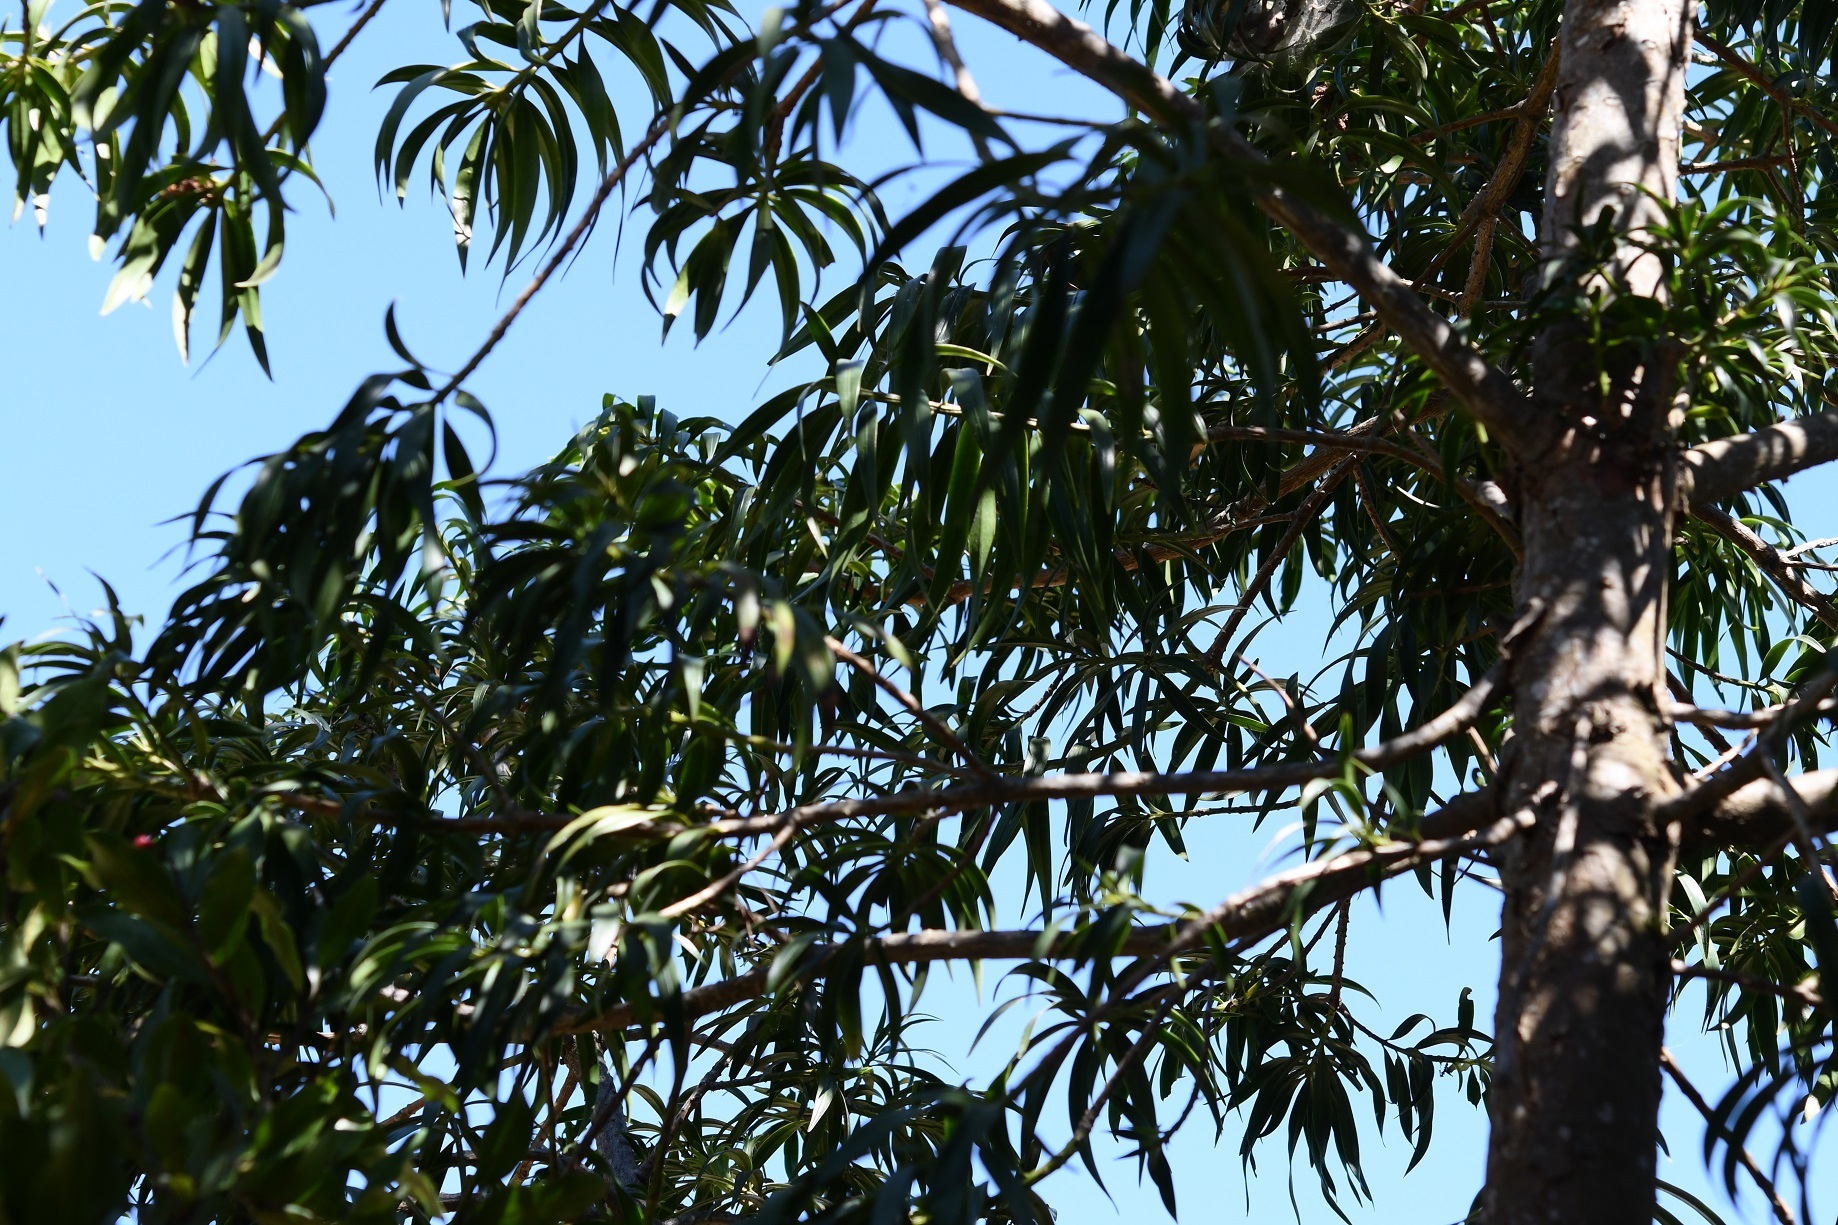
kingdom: Plantae
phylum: Tracheophyta
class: Pinopsida
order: Pinales
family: Podocarpaceae
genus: Podocarpus
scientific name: Podocarpus matudae
